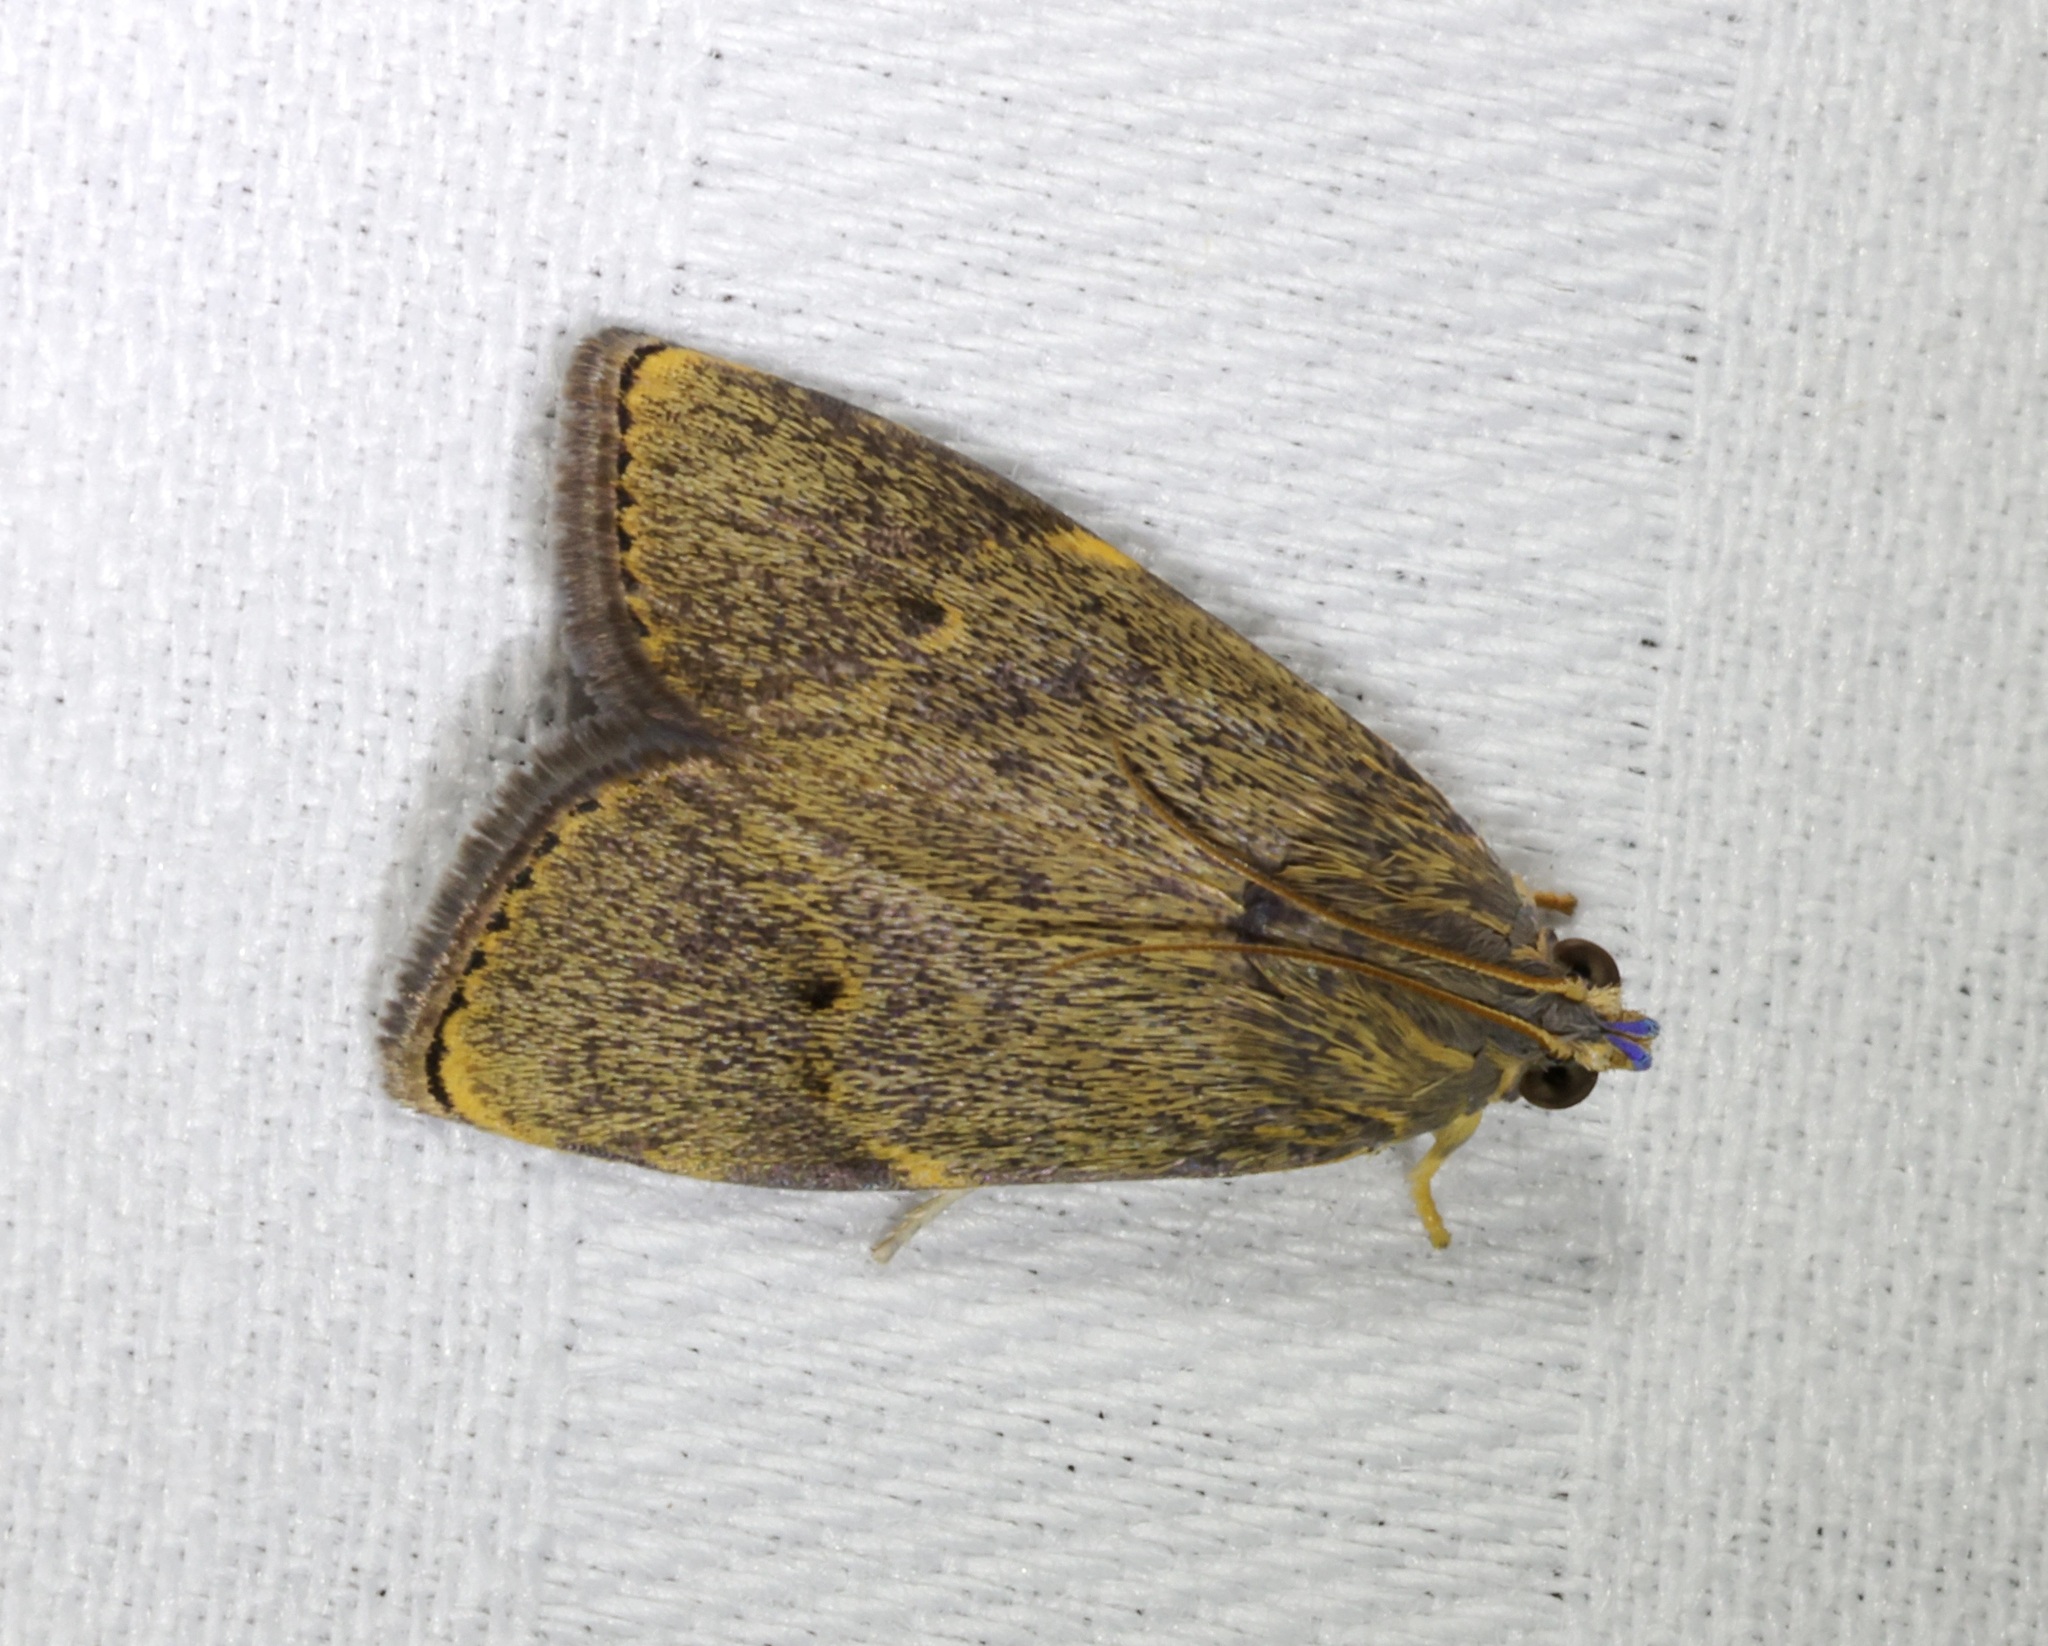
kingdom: Animalia
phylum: Arthropoda
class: Insecta
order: Lepidoptera
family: Immidae
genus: Imma
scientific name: Imma mylias
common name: Moth
